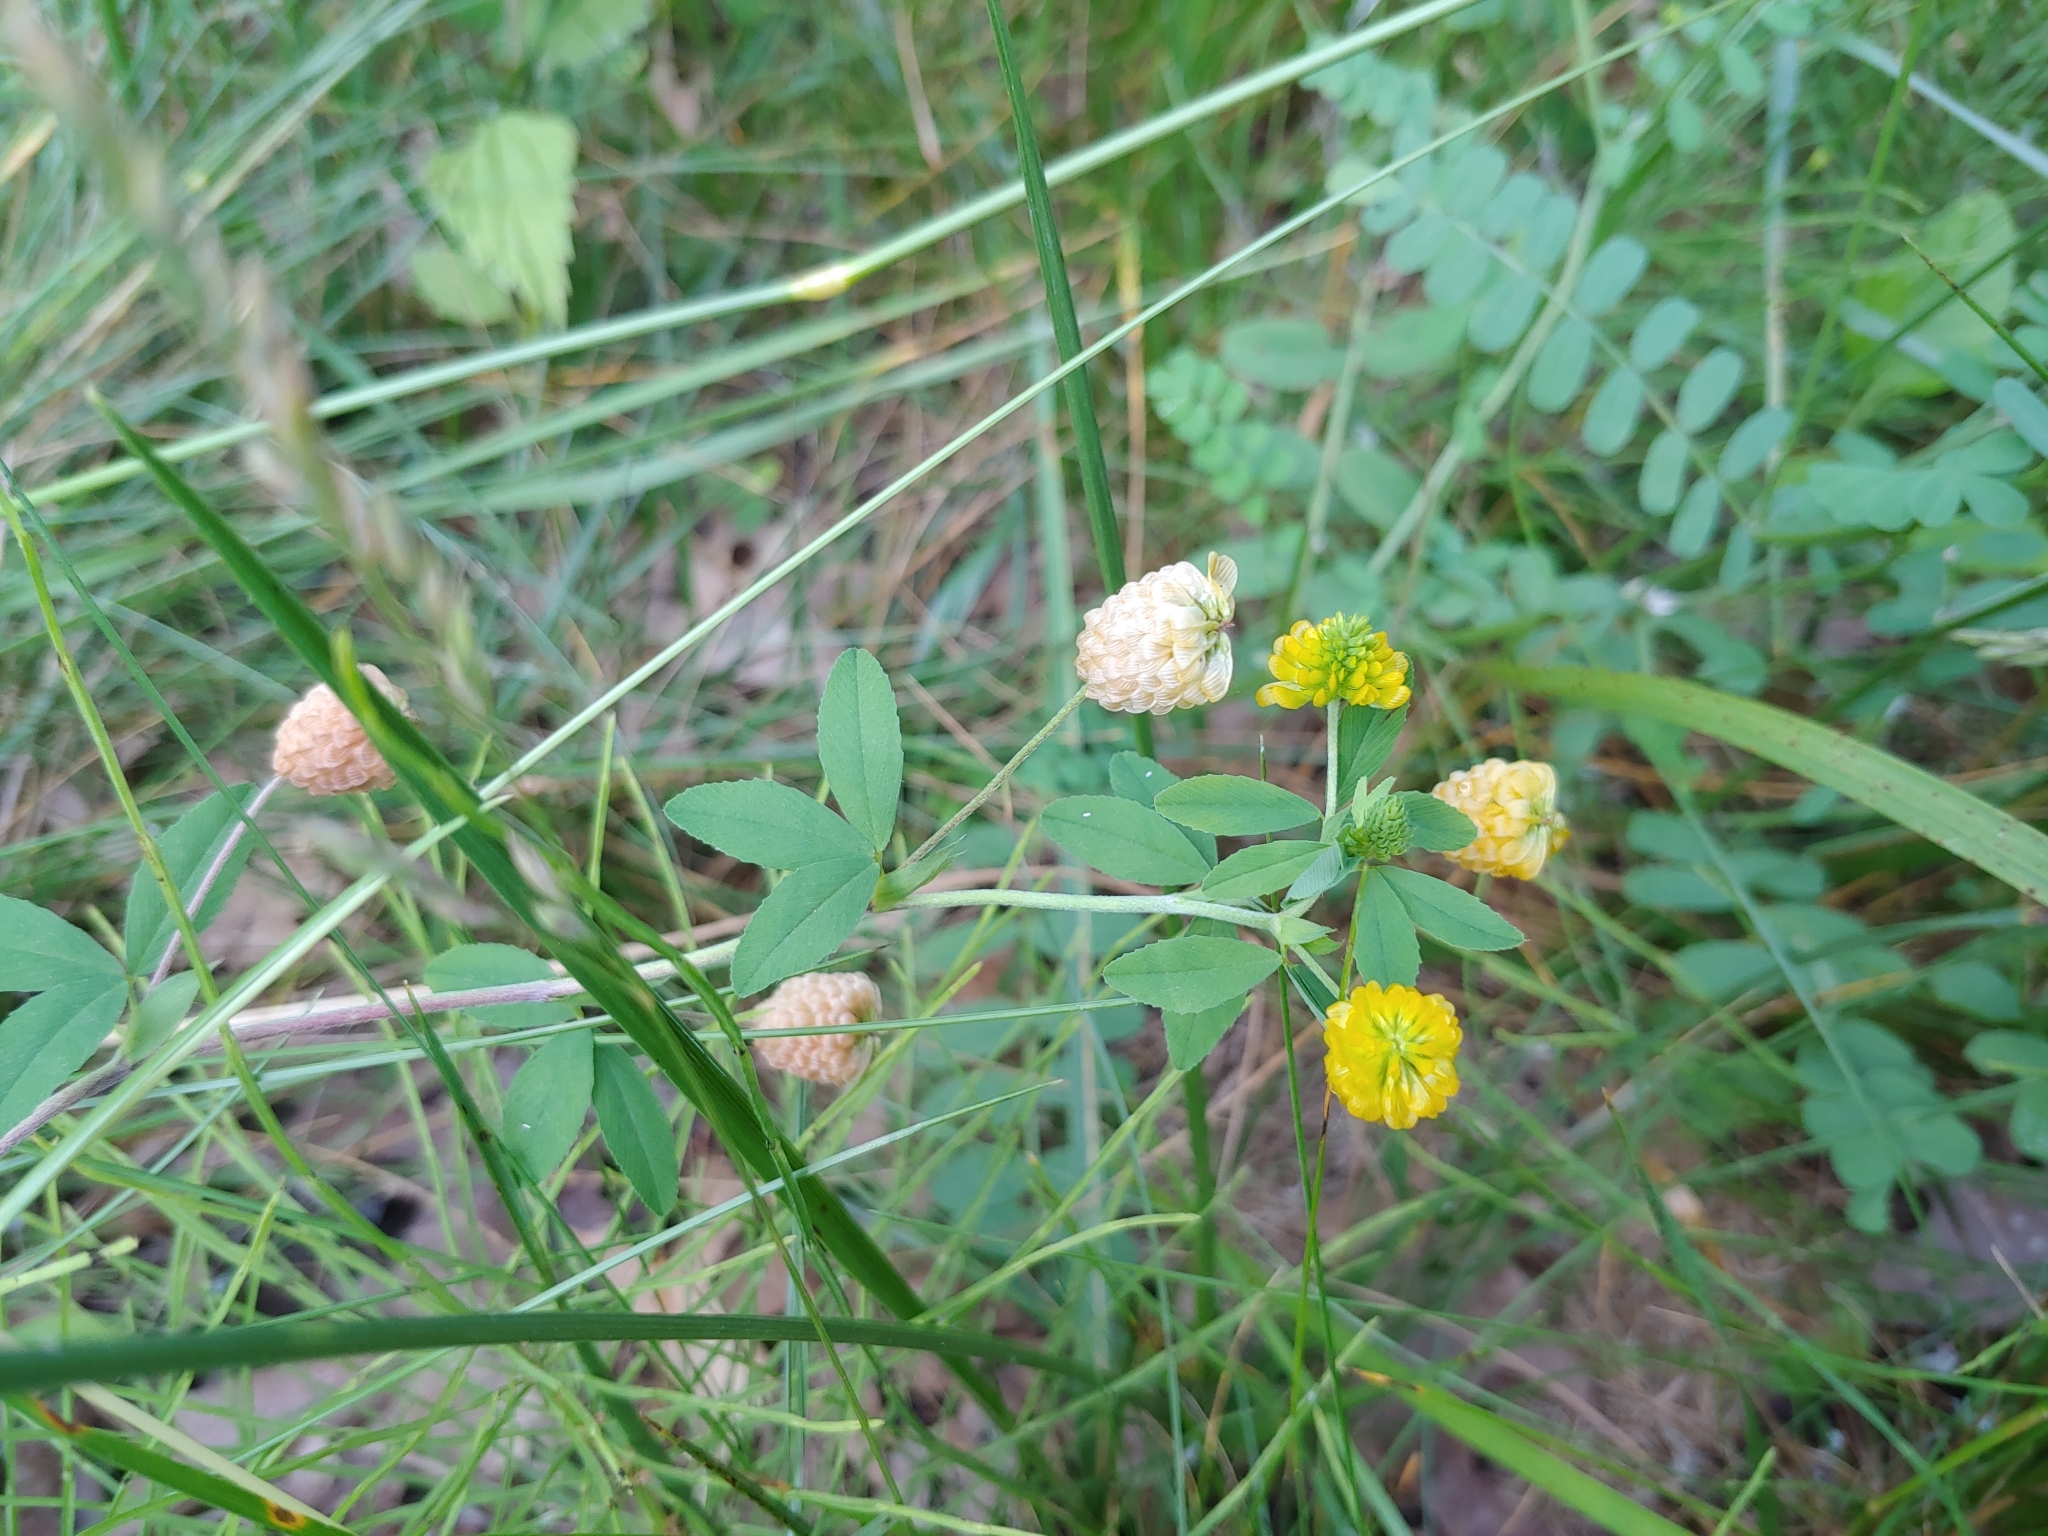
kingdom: Plantae
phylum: Tracheophyta
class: Magnoliopsida
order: Fabales
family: Fabaceae
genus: Trifolium
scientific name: Trifolium aureum
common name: Golden clover
